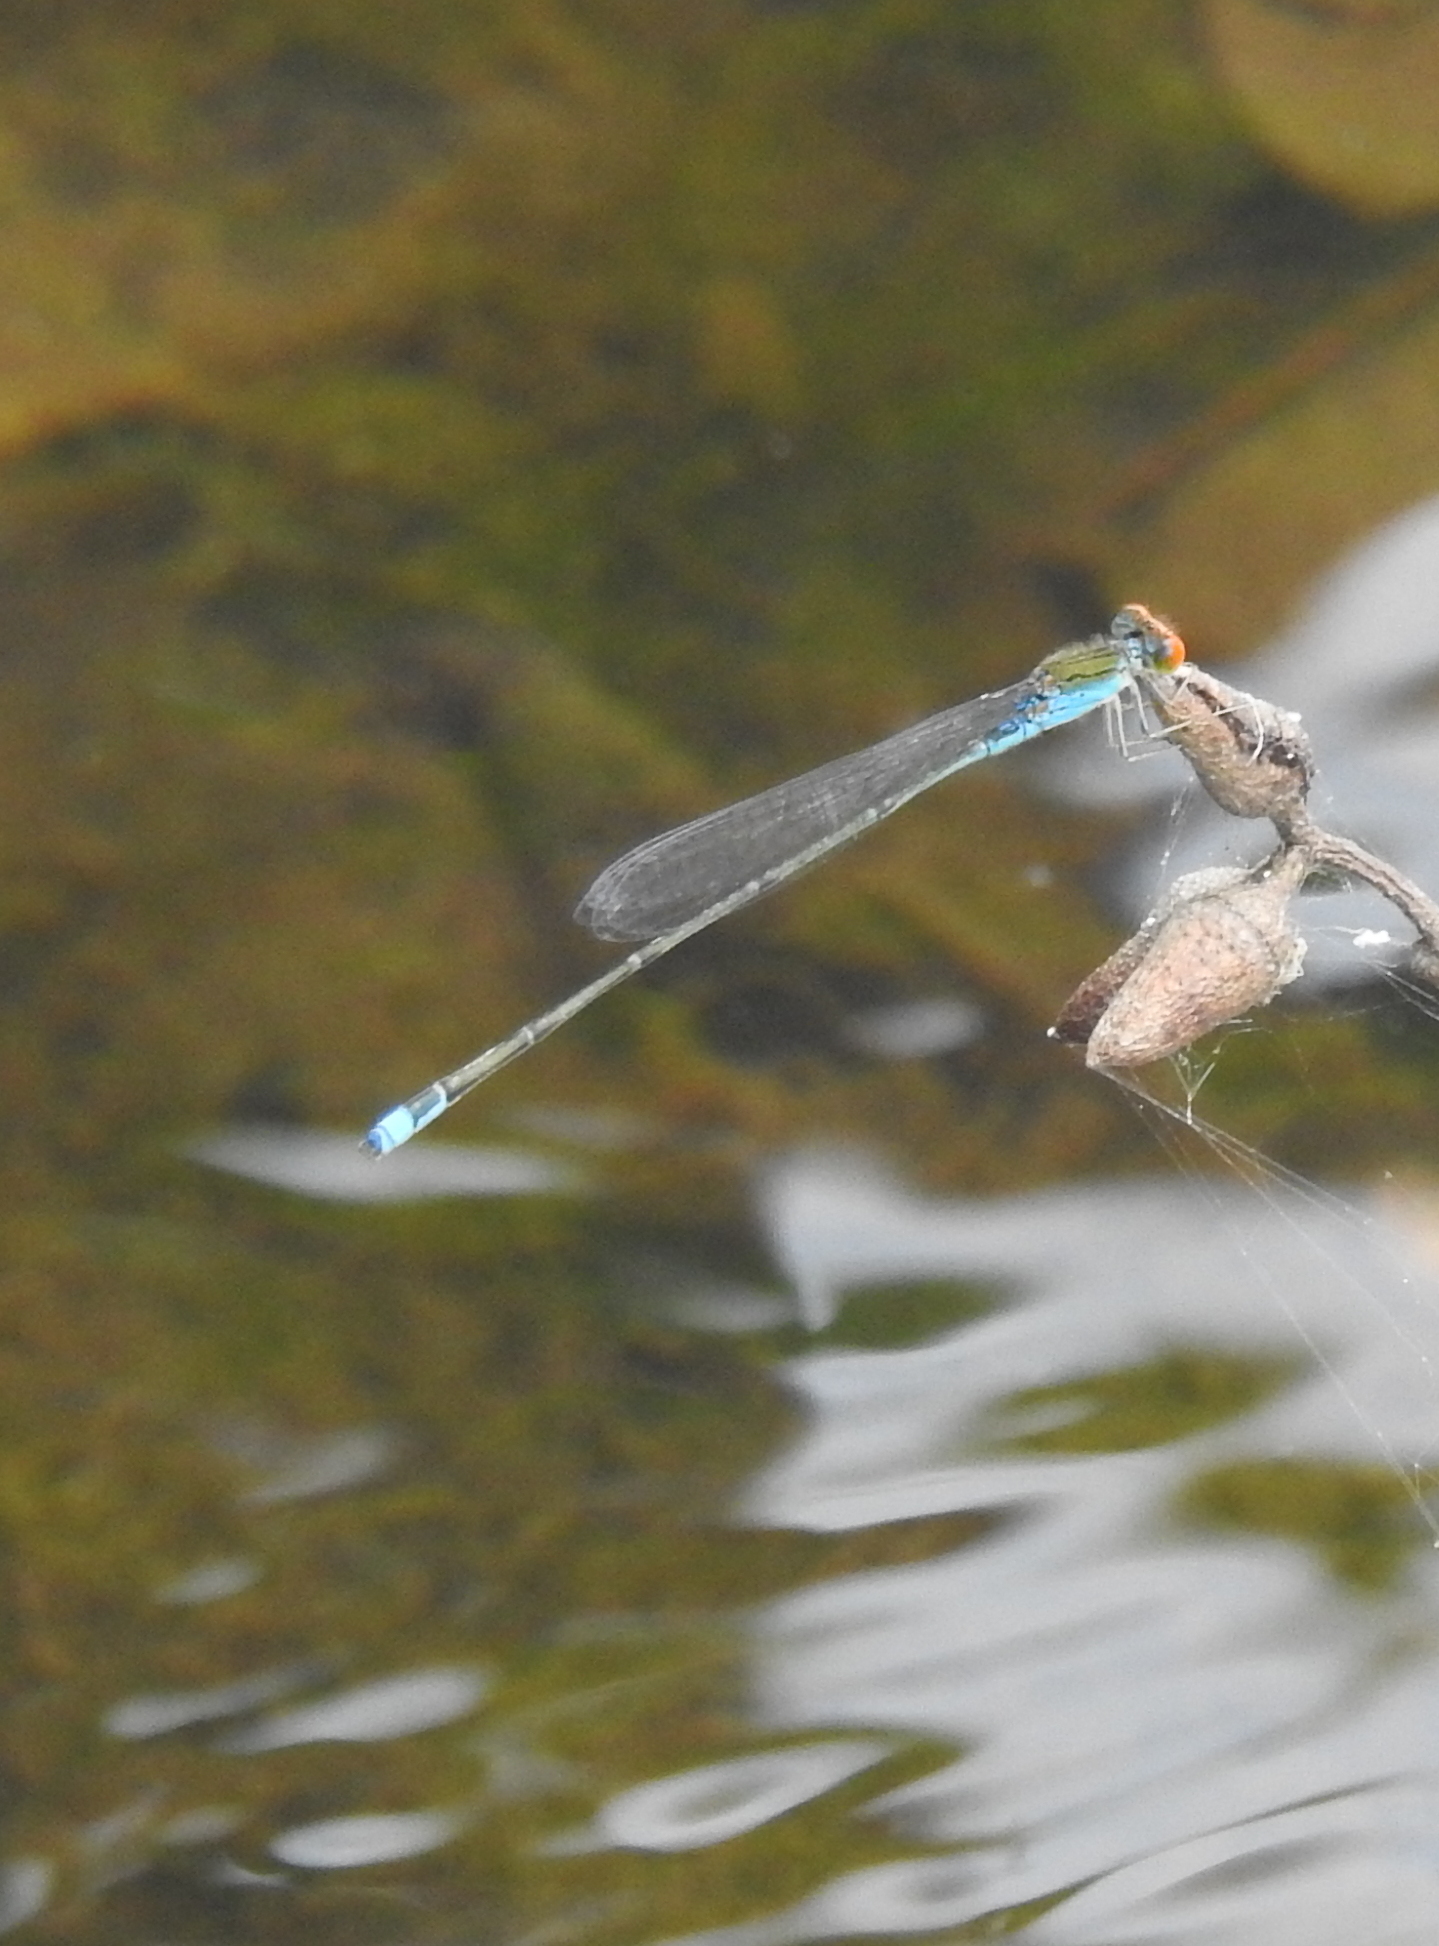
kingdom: Animalia
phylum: Arthropoda
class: Insecta
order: Odonata
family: Coenagrionidae
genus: Pseudagrion
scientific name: Pseudagrion rubriceps
